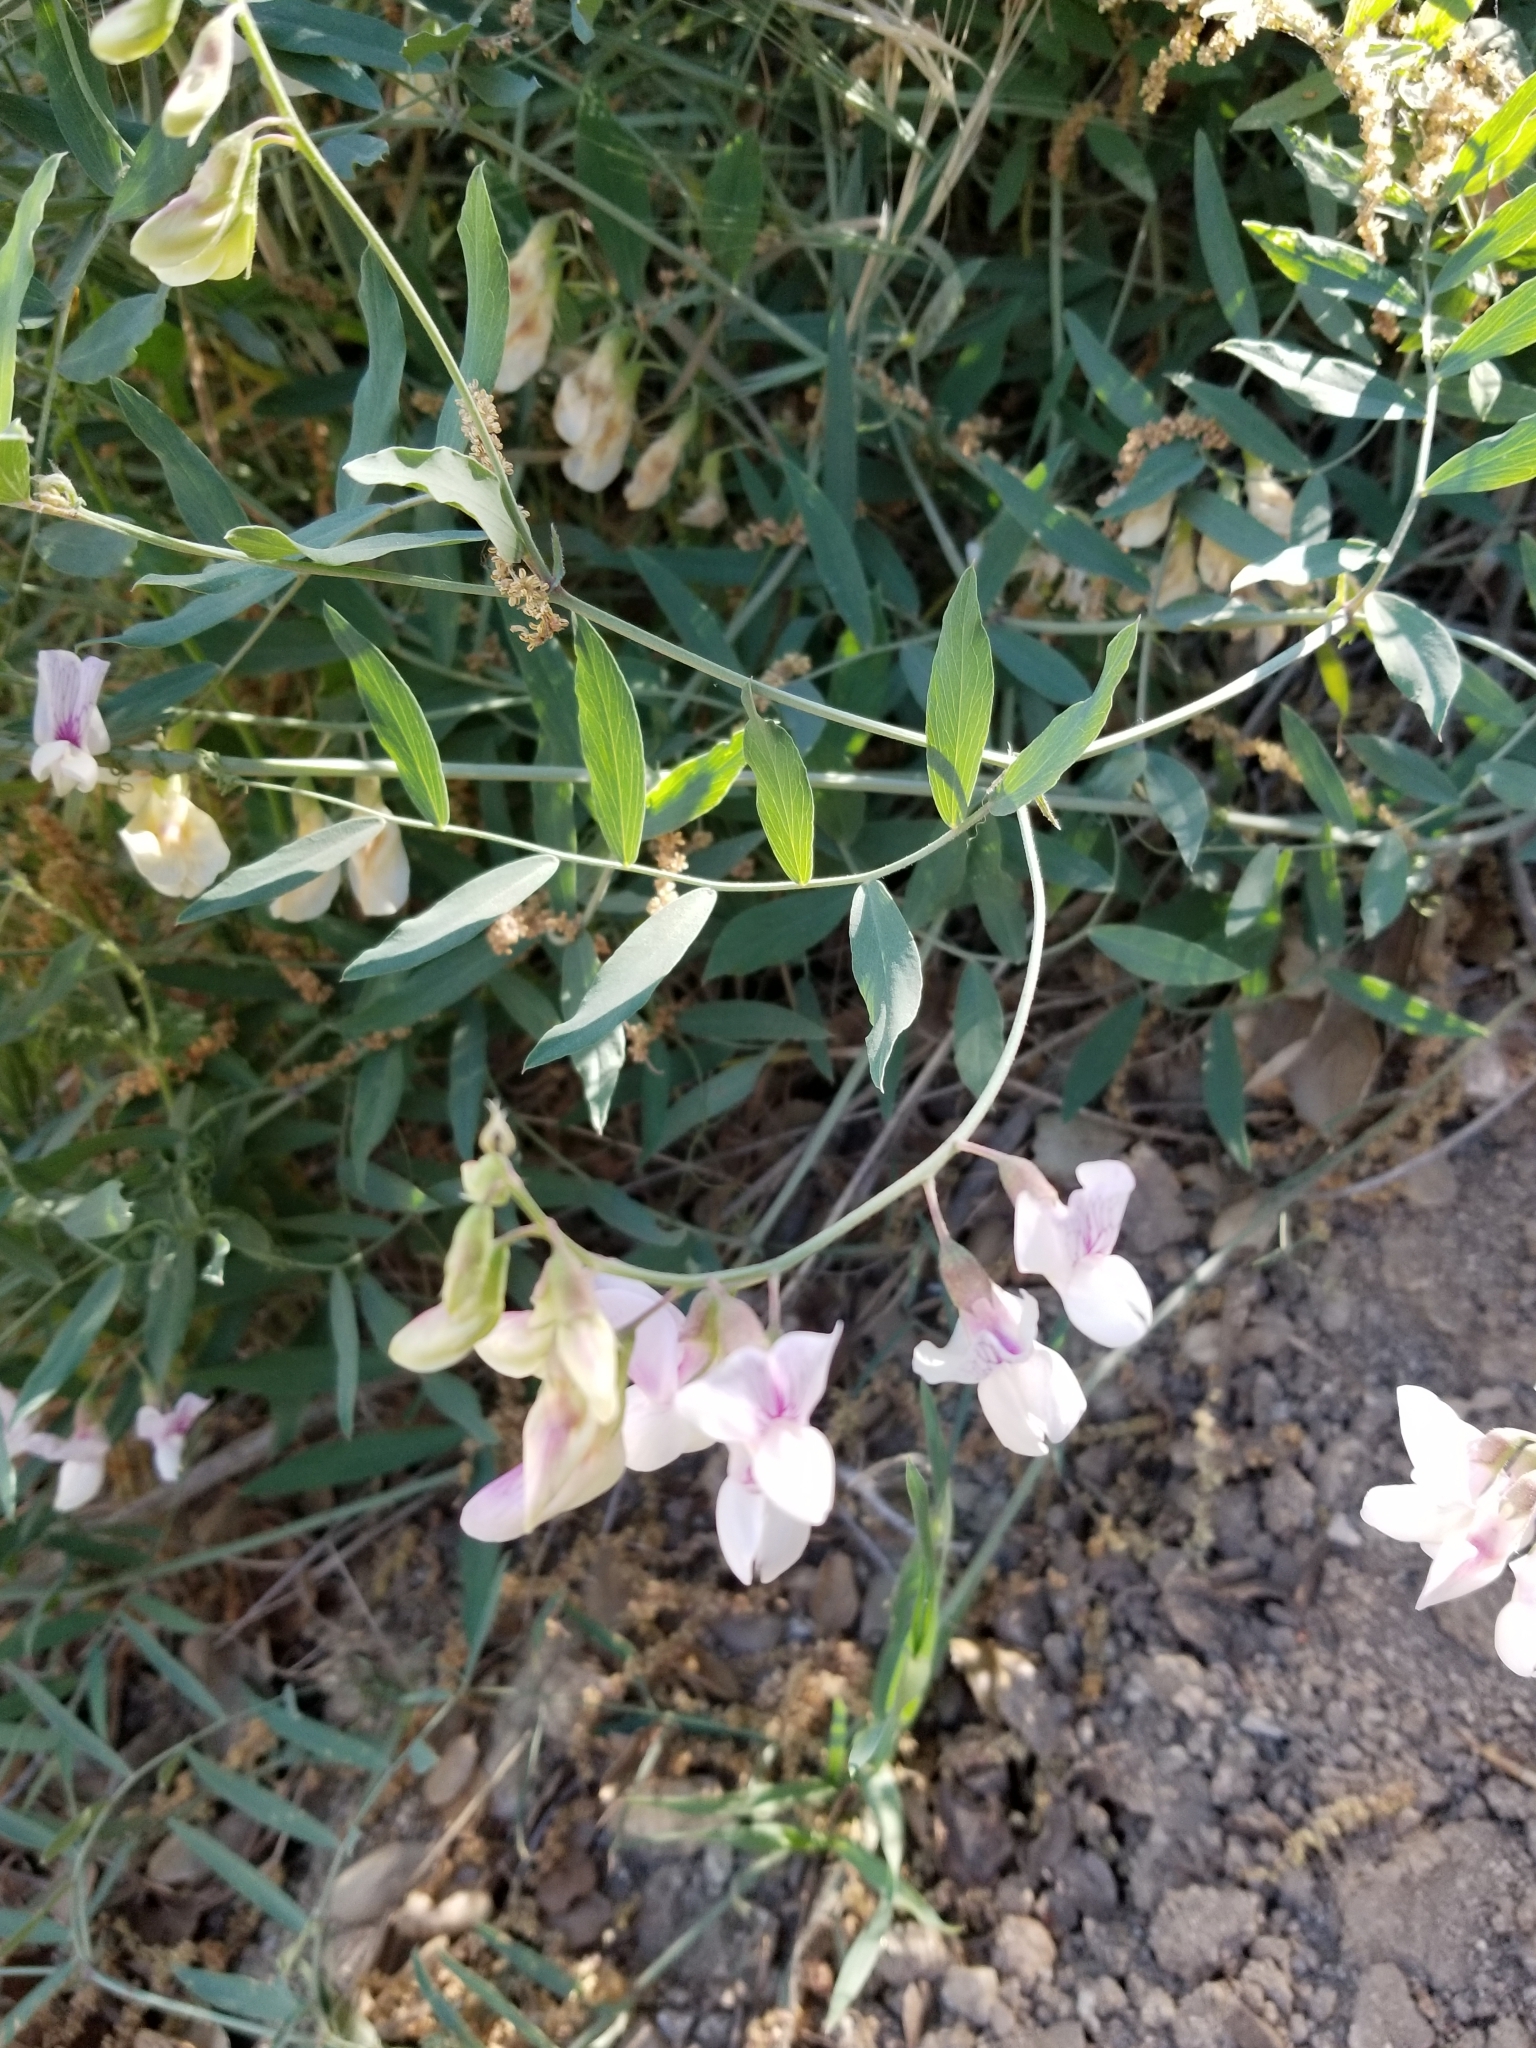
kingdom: Plantae
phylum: Tracheophyta
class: Magnoliopsida
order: Fabales
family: Fabaceae
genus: Lathyrus
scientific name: Lathyrus vestitus
